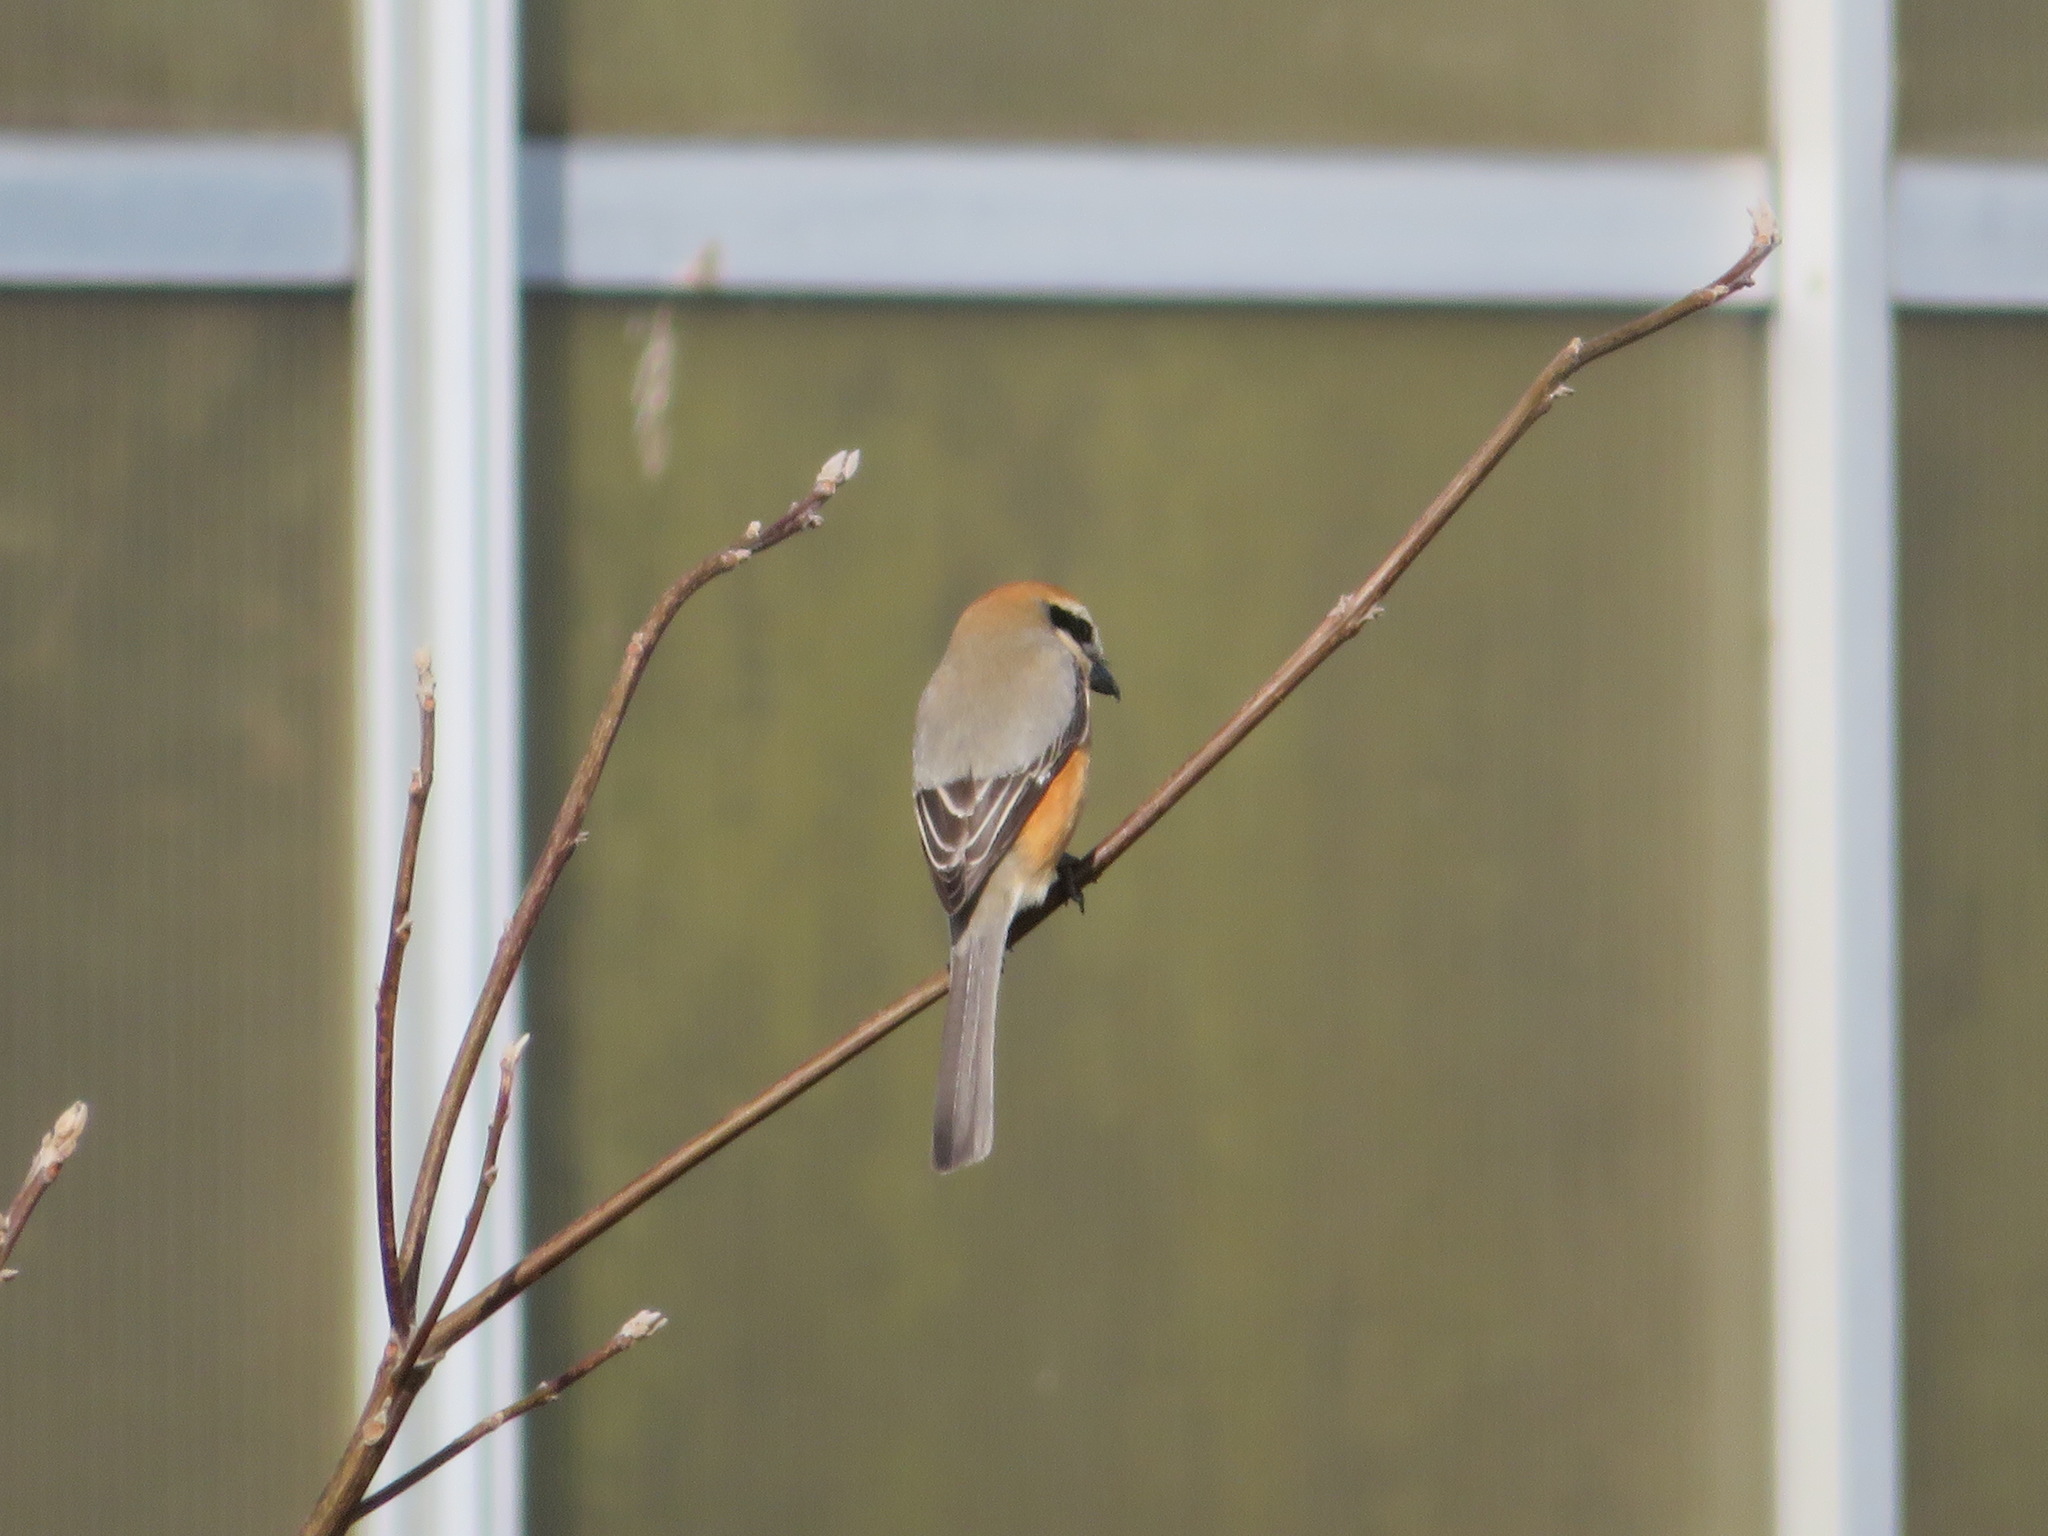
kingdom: Animalia
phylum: Chordata
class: Aves
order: Passeriformes
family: Laniidae
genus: Lanius
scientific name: Lanius bucephalus
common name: Bull-headed shrike
